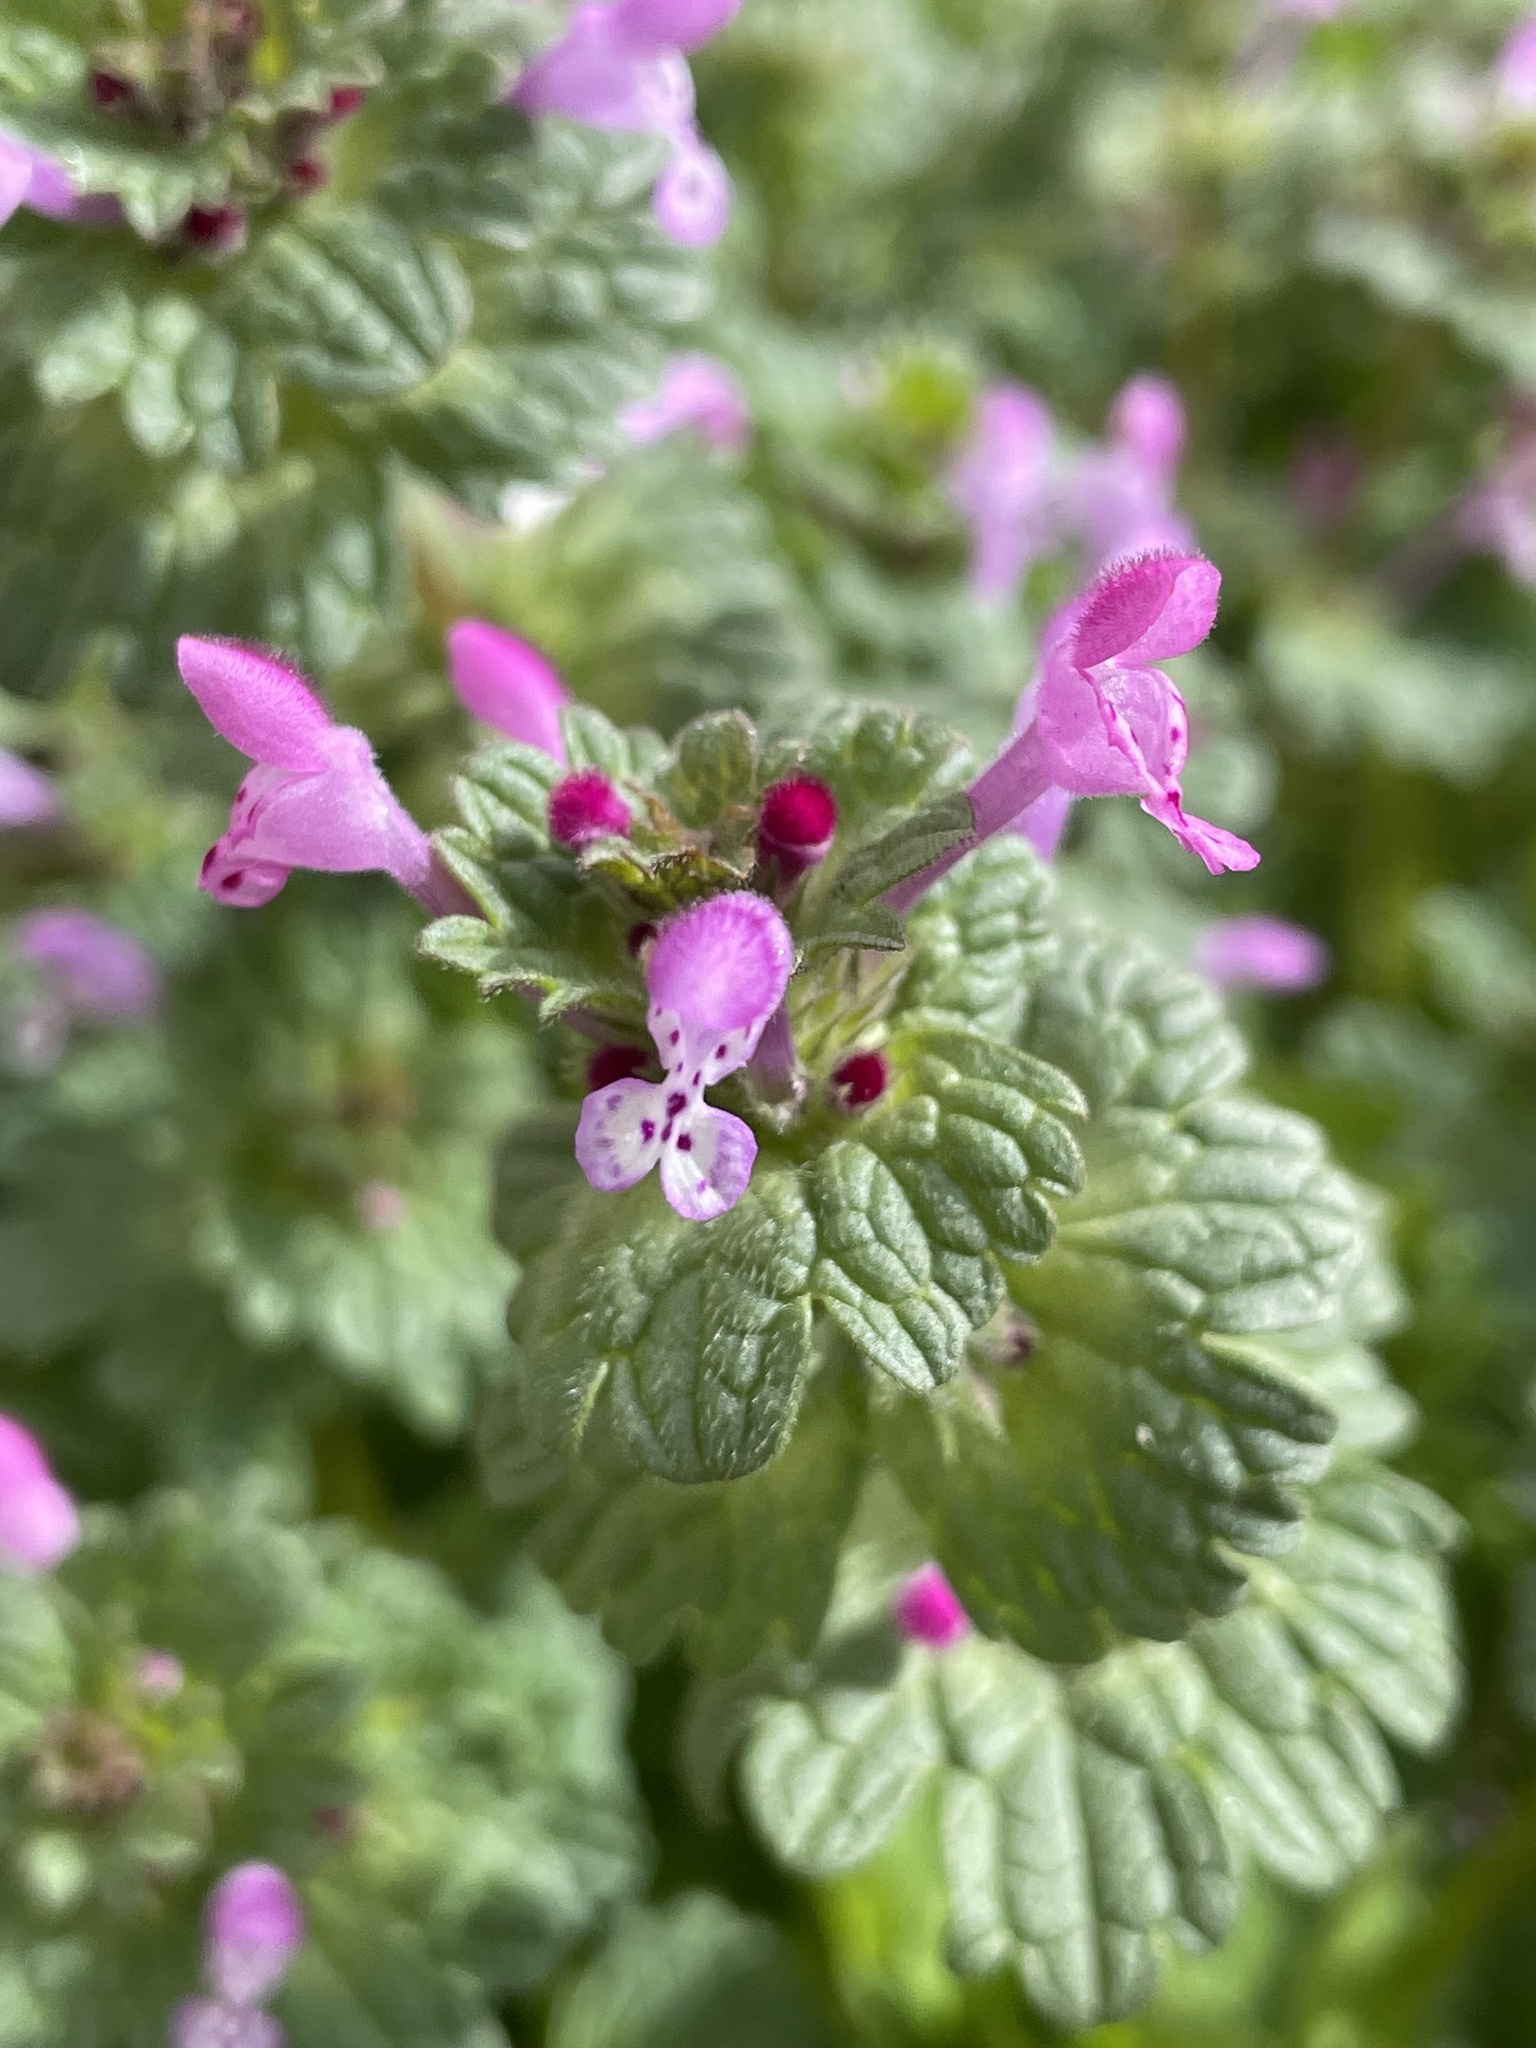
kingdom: Plantae
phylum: Tracheophyta
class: Magnoliopsida
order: Lamiales
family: Lamiaceae
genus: Lamium
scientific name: Lamium amplexicaule
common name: Henbit dead-nettle
